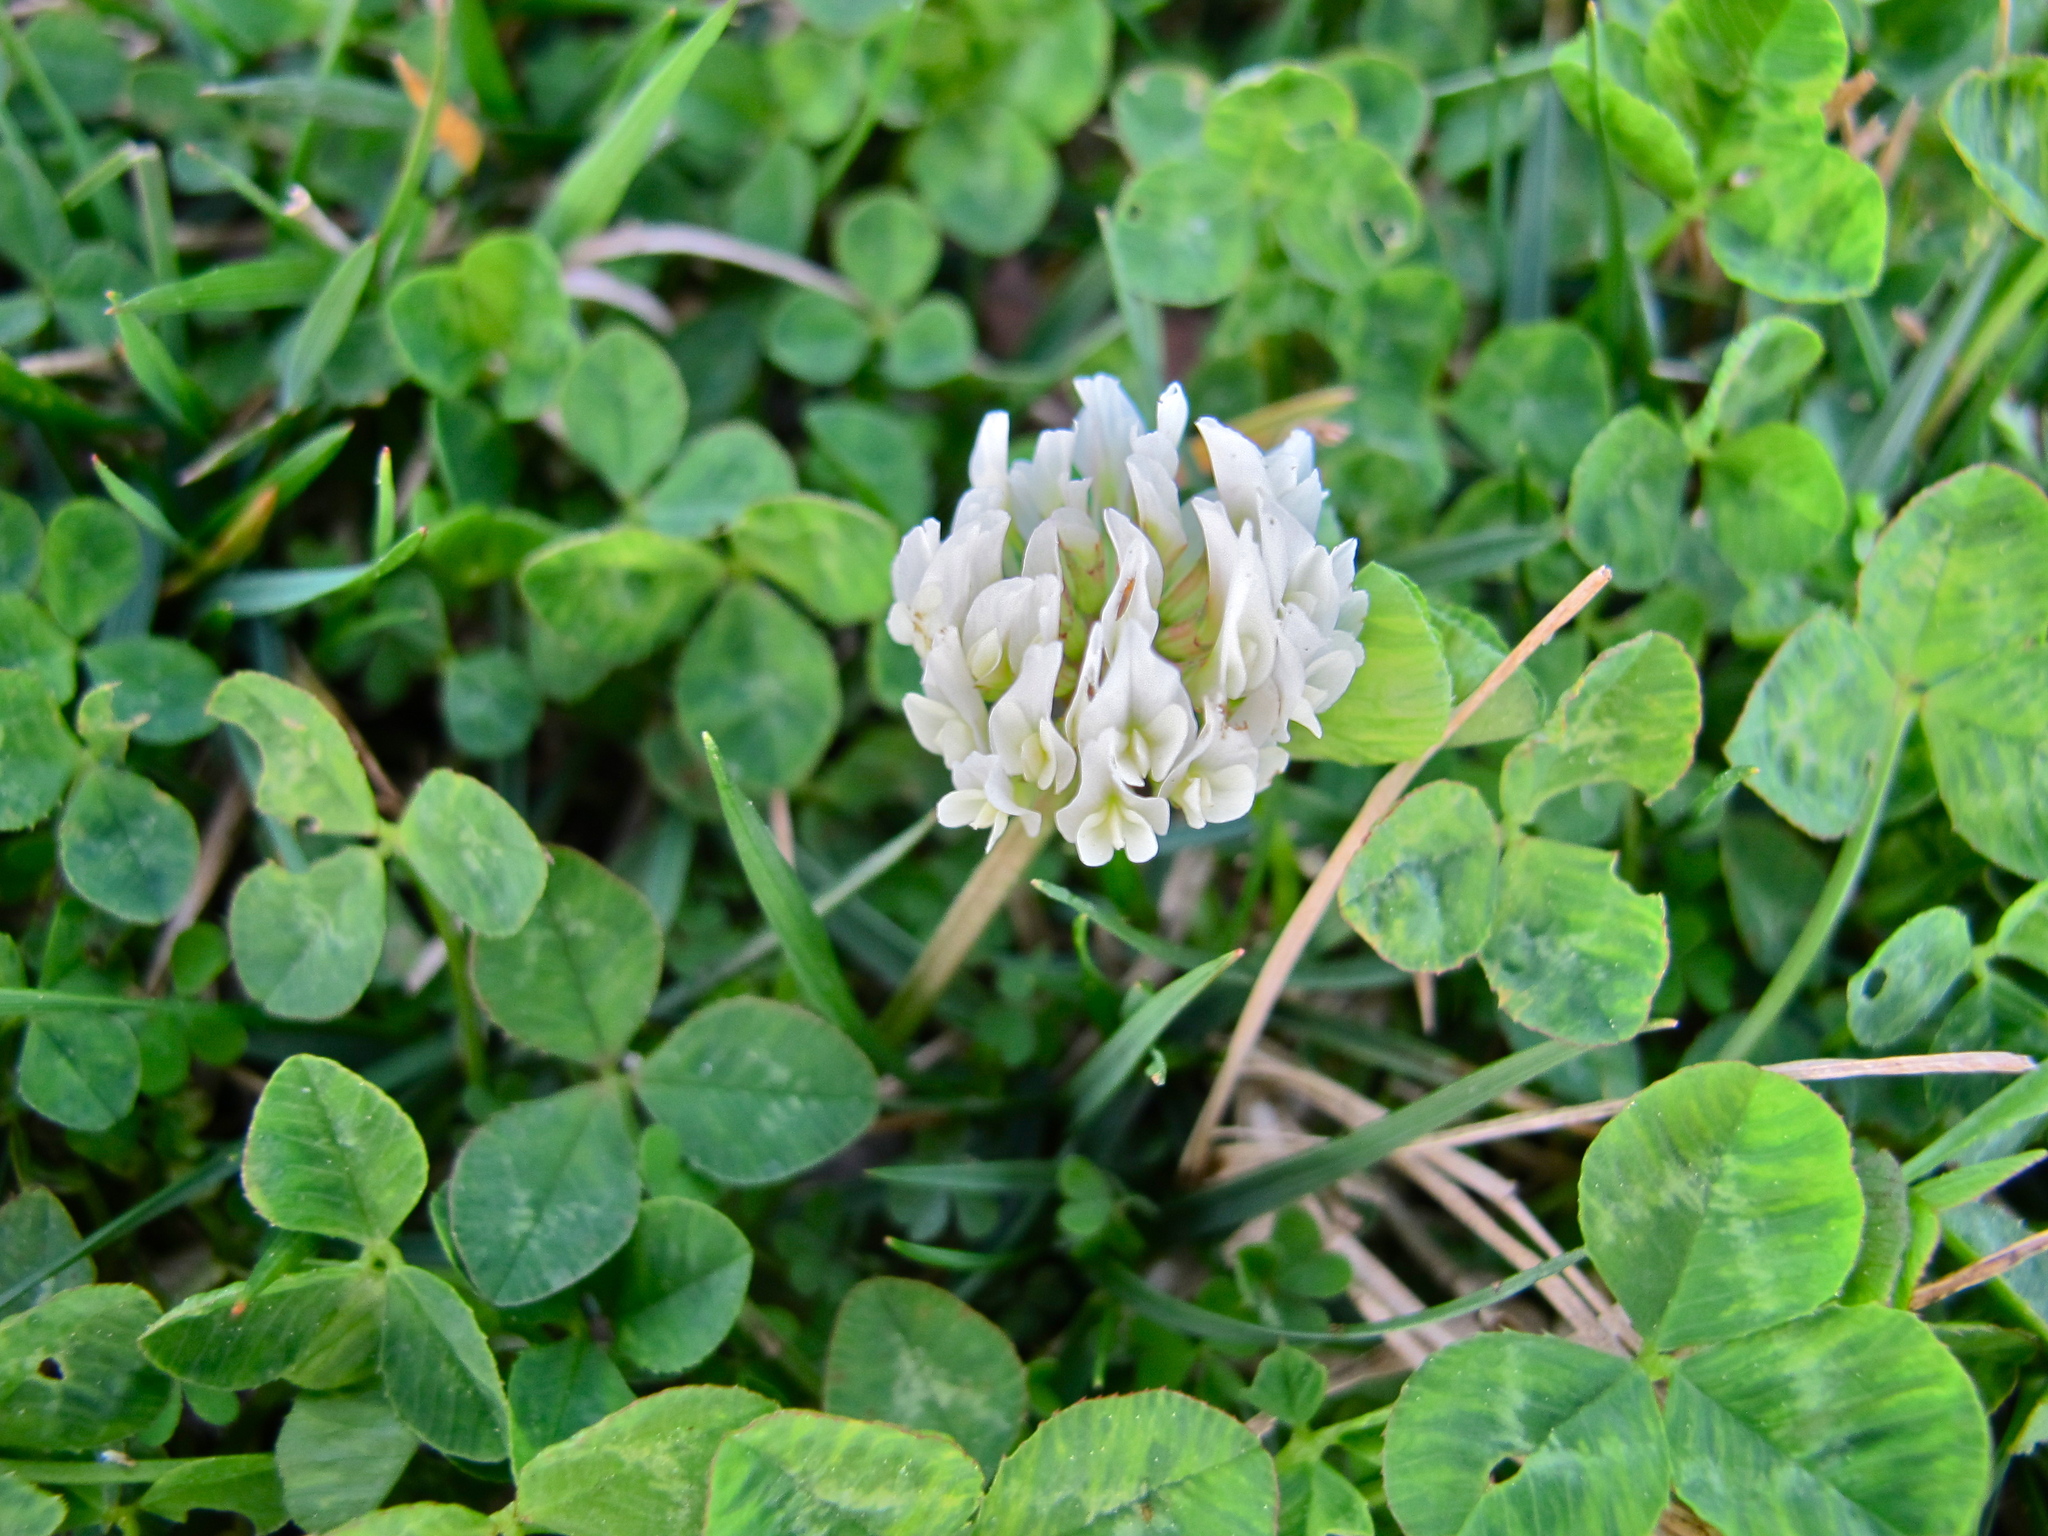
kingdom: Plantae
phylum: Tracheophyta
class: Magnoliopsida
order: Fabales
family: Fabaceae
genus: Trifolium
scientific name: Trifolium repens
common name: White clover
